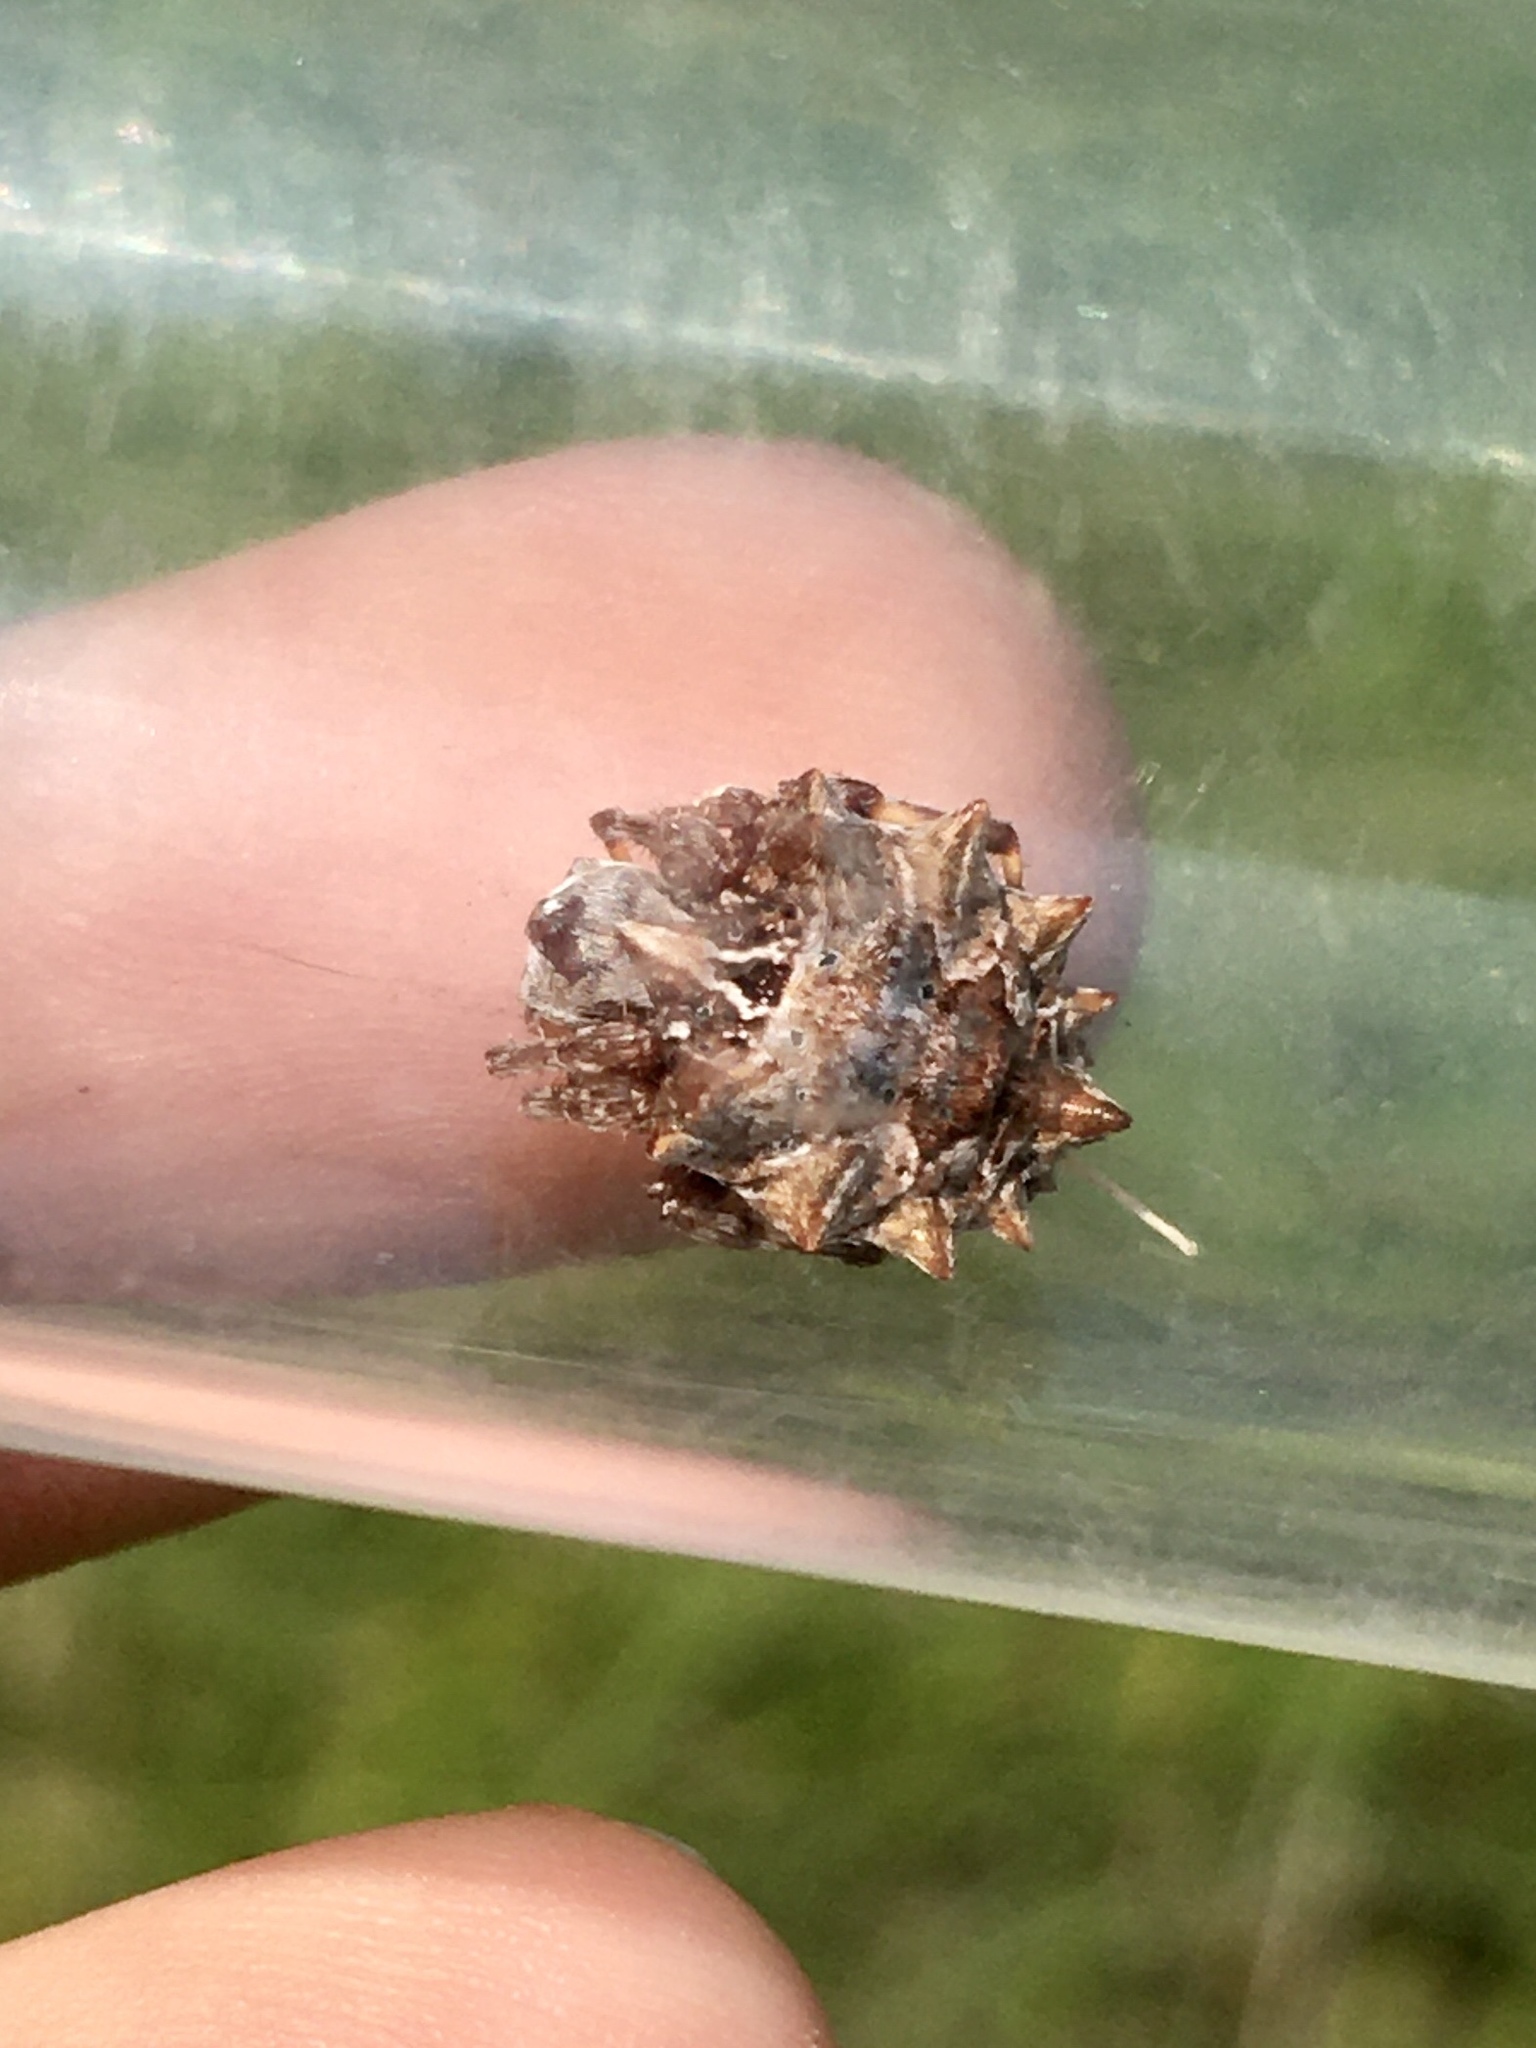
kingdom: Animalia
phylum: Arthropoda
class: Arachnida
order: Araneae
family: Araneidae
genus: Acanthepeira
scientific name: Acanthepeira stellata
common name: Starbellied orbweaver
